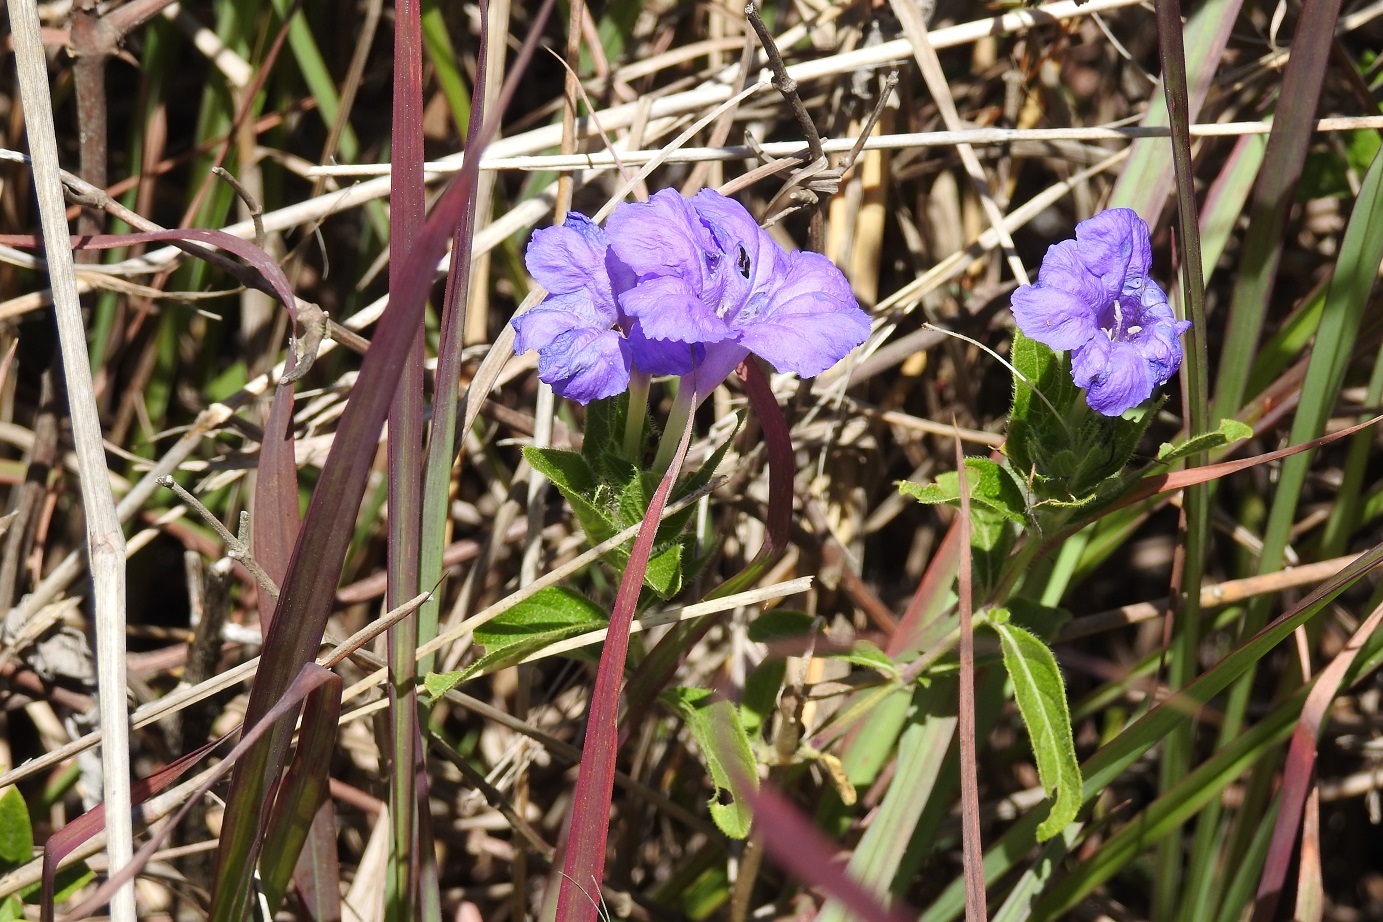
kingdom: Plantae
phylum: Tracheophyta
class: Magnoliopsida
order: Lamiales
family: Acanthaceae
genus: Ruellia
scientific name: Ruellia lactea
